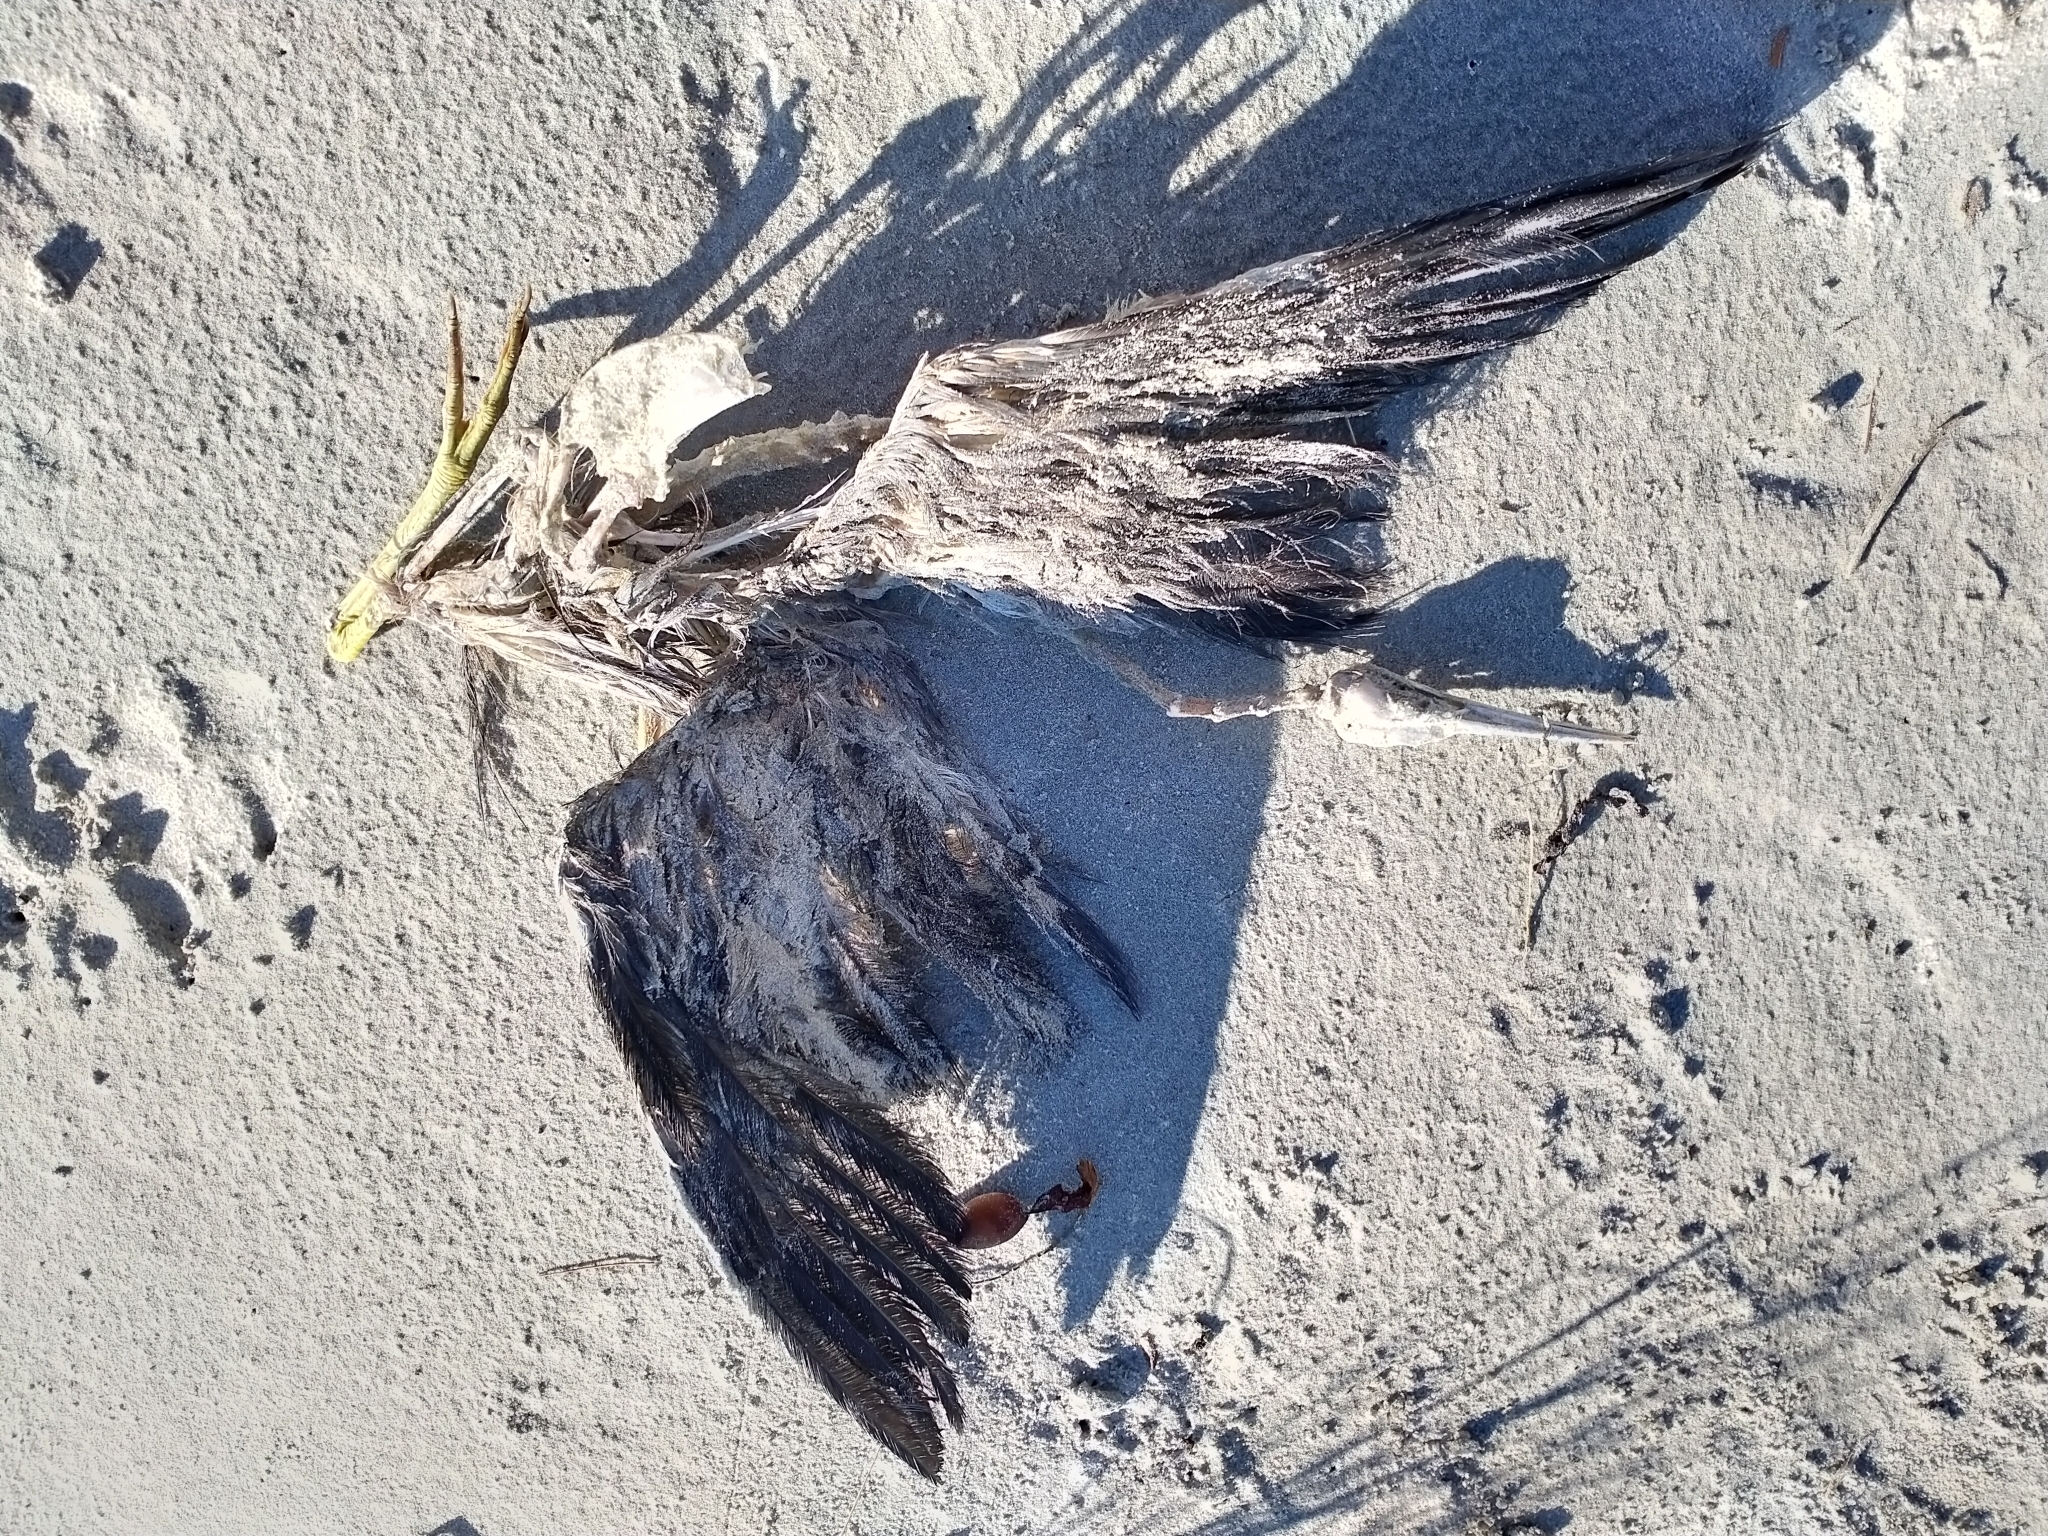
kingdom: Animalia
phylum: Chordata
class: Aves
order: Pelecaniformes
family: Ardeidae
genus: Egretta
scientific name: Egretta novaehollandiae
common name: White-faced heron
